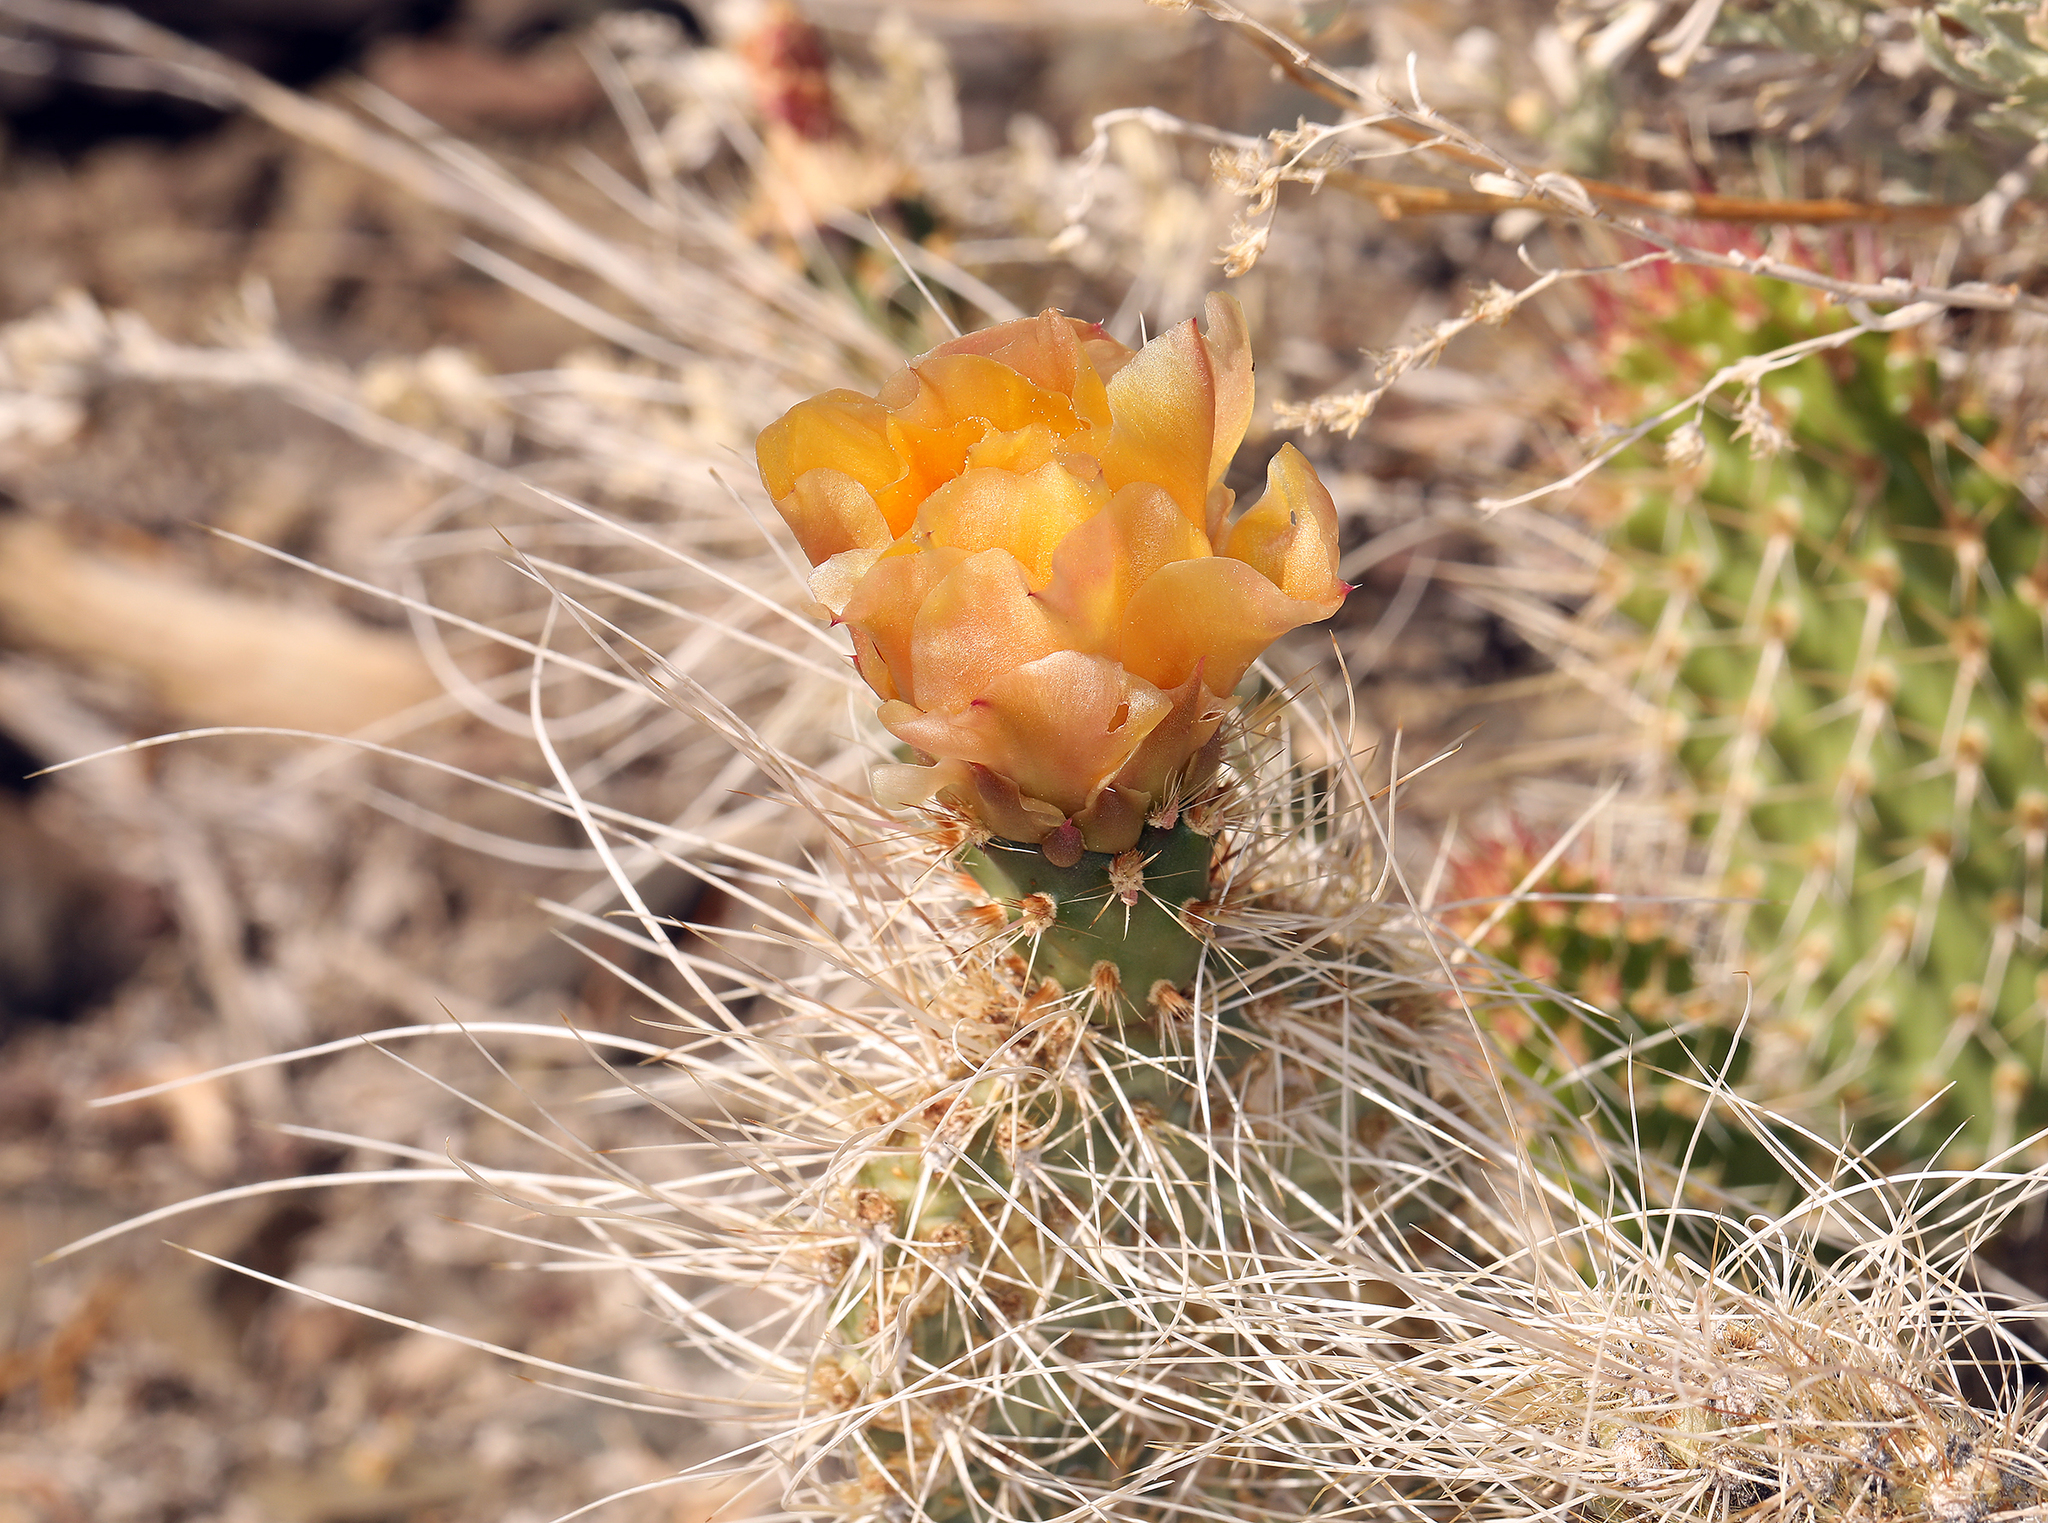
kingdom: Plantae
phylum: Tracheophyta
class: Magnoliopsida
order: Caryophyllales
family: Cactaceae
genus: Opuntia
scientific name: Opuntia polyacantha
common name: Plains prickly-pear
